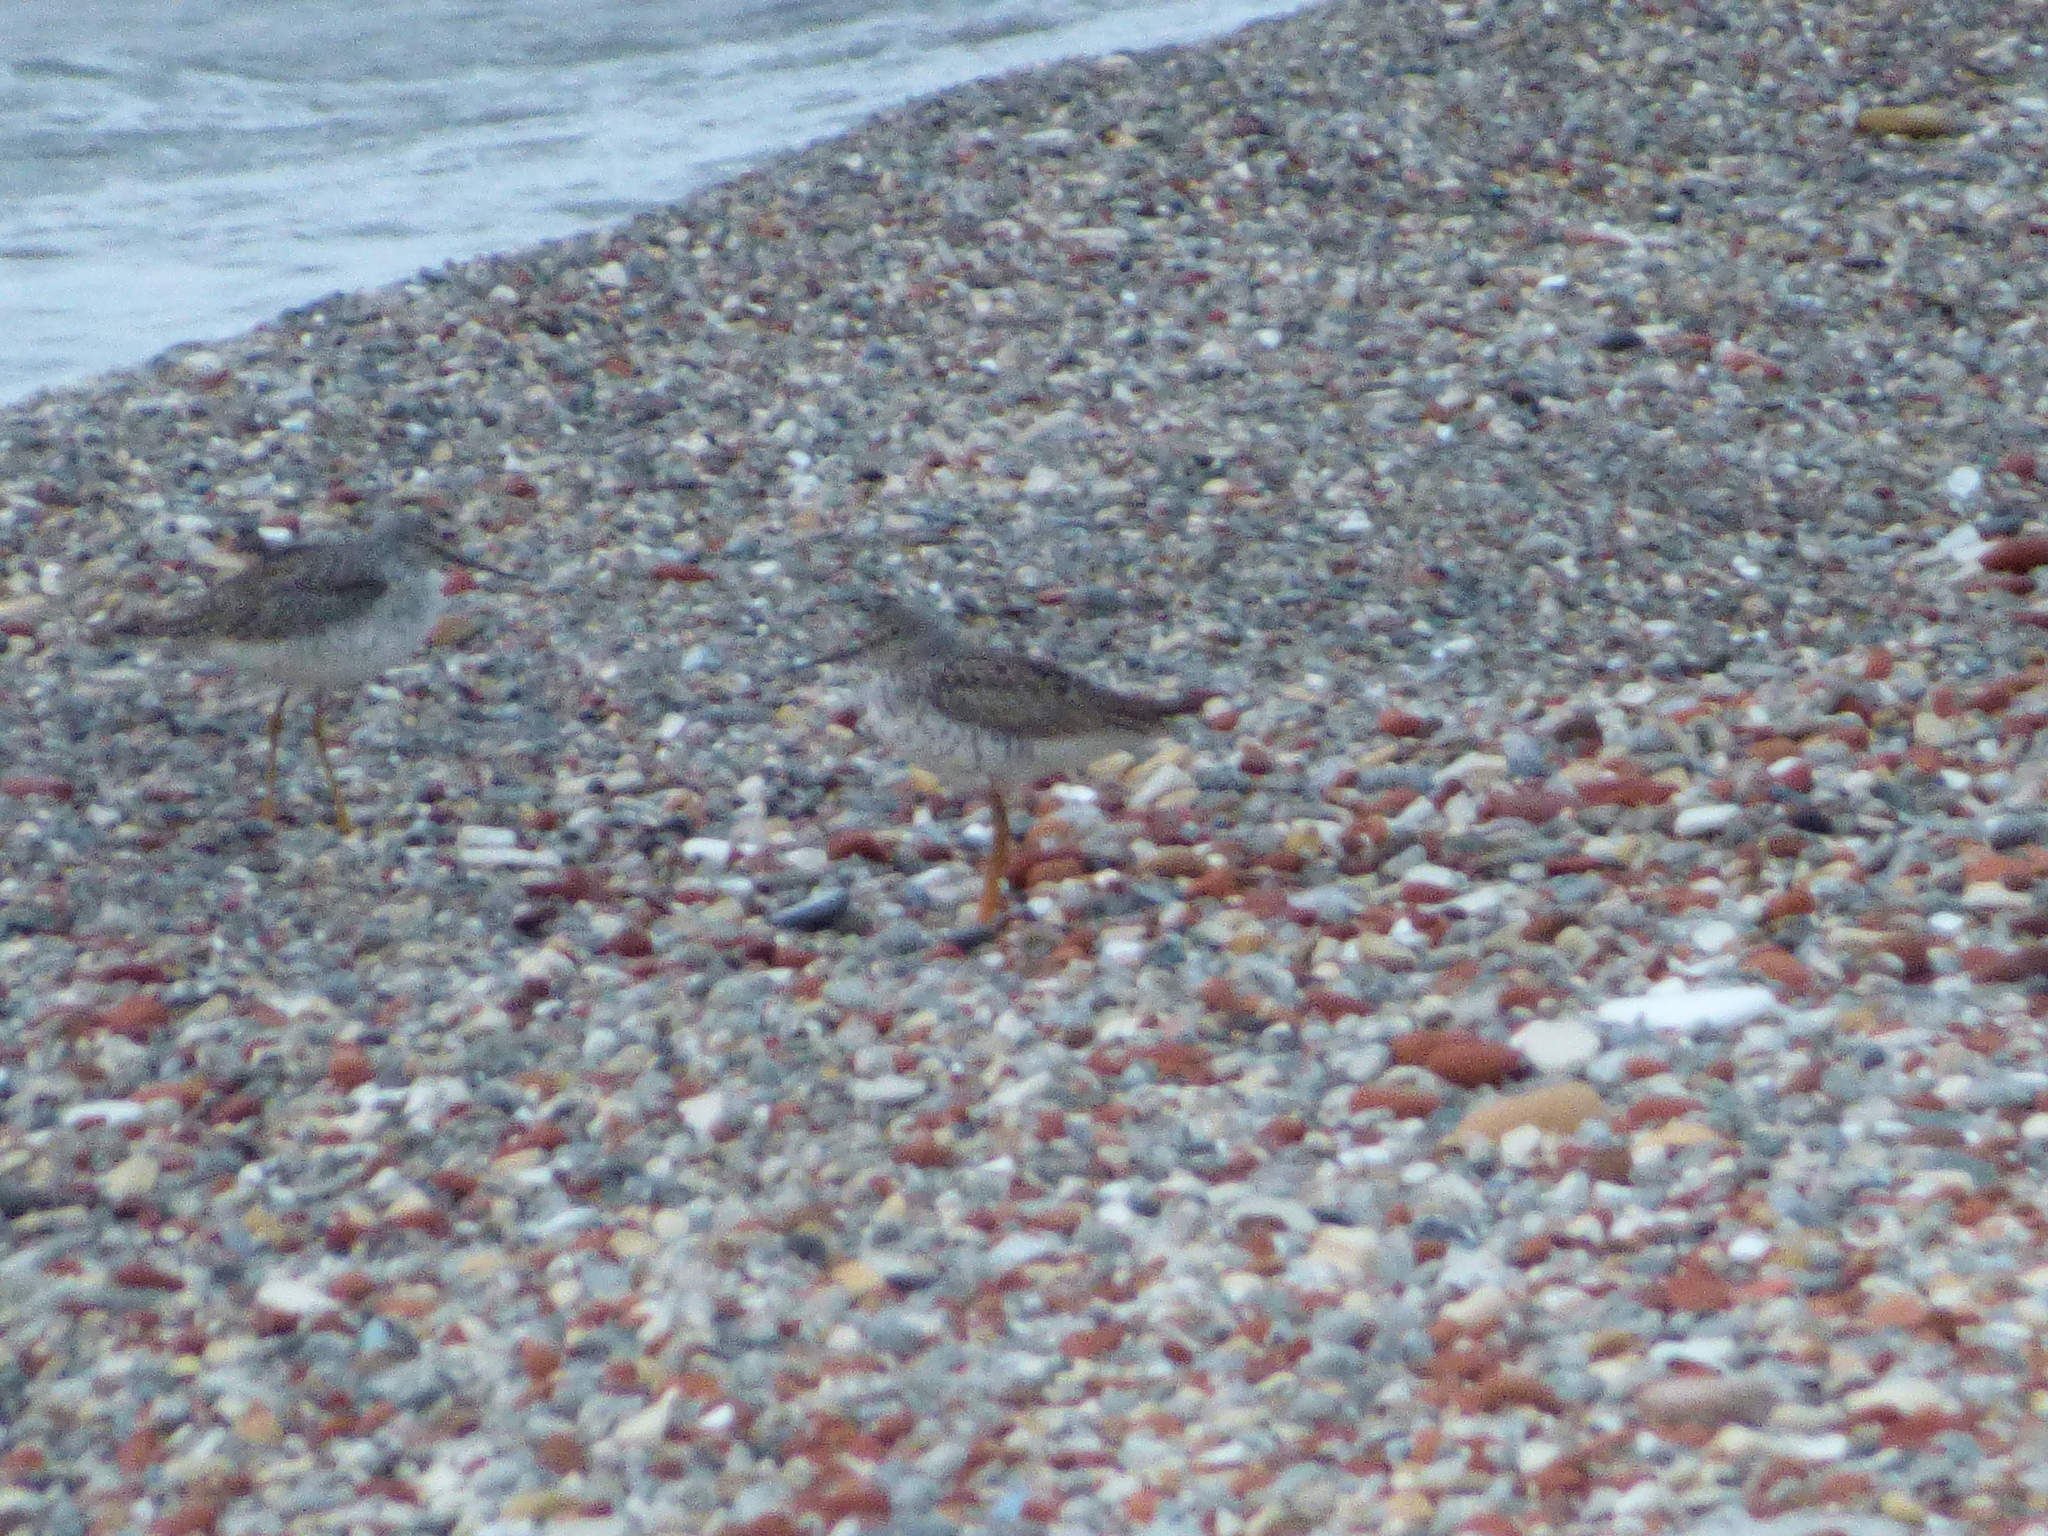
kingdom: Animalia
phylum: Chordata
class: Aves
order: Charadriiformes
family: Scolopacidae
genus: Tringa
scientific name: Tringa flavipes
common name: Lesser yellowlegs
